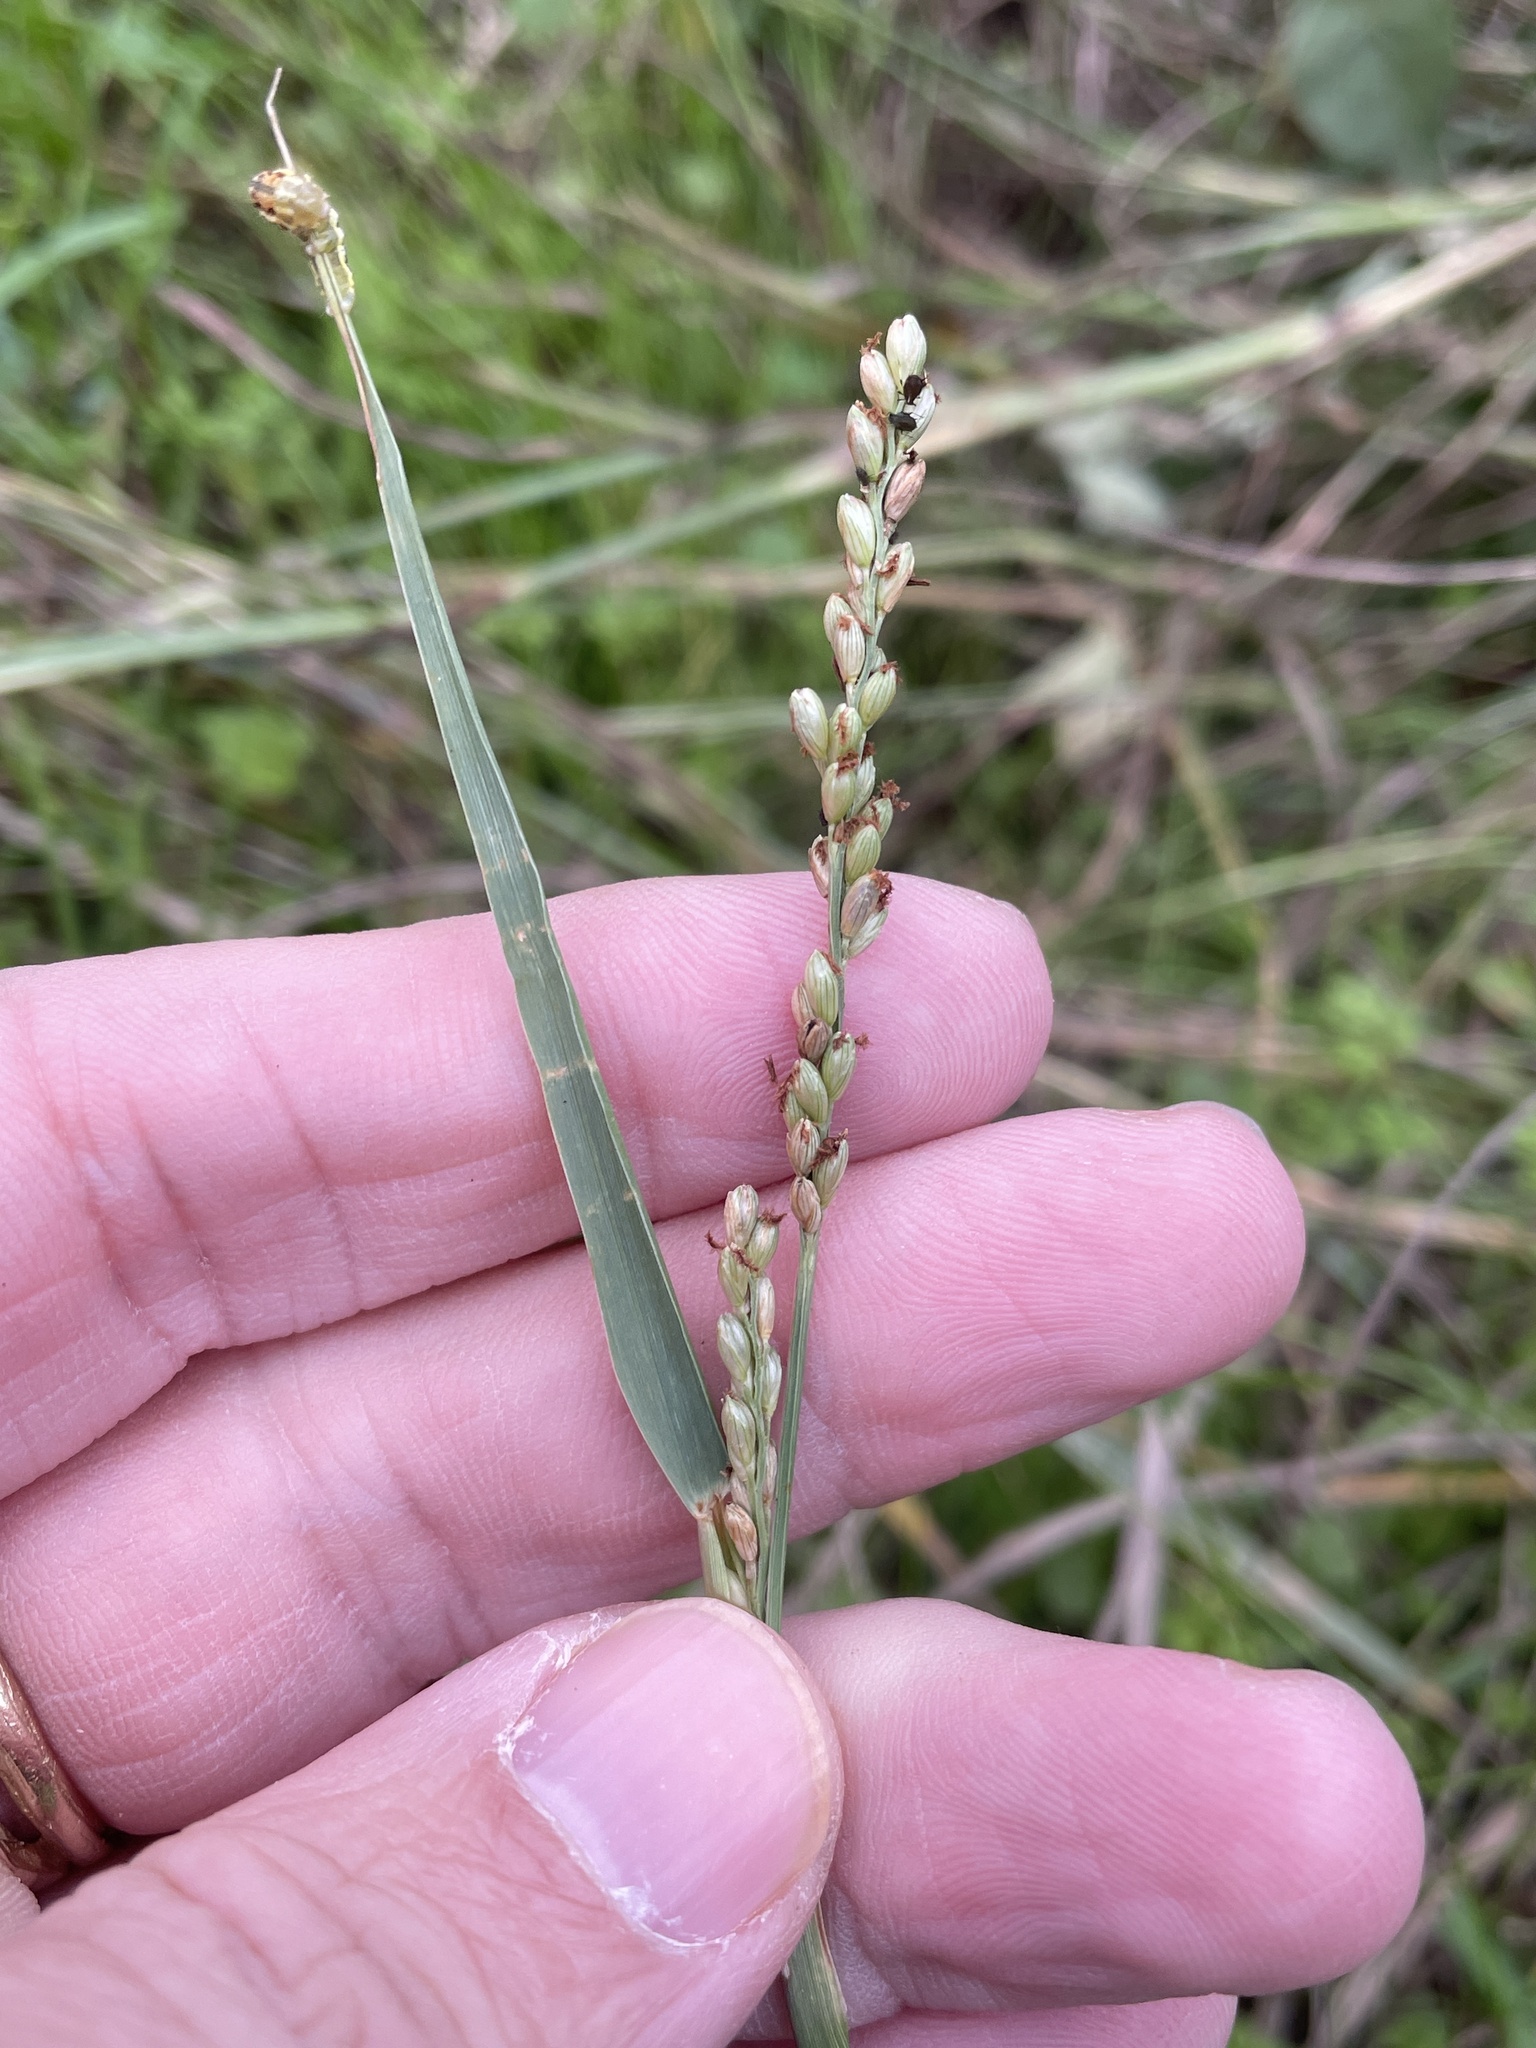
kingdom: Plantae
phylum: Tracheophyta
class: Liliopsida
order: Poales
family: Poaceae
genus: Hopia
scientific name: Hopia obtusa
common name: Vine-mesquite
